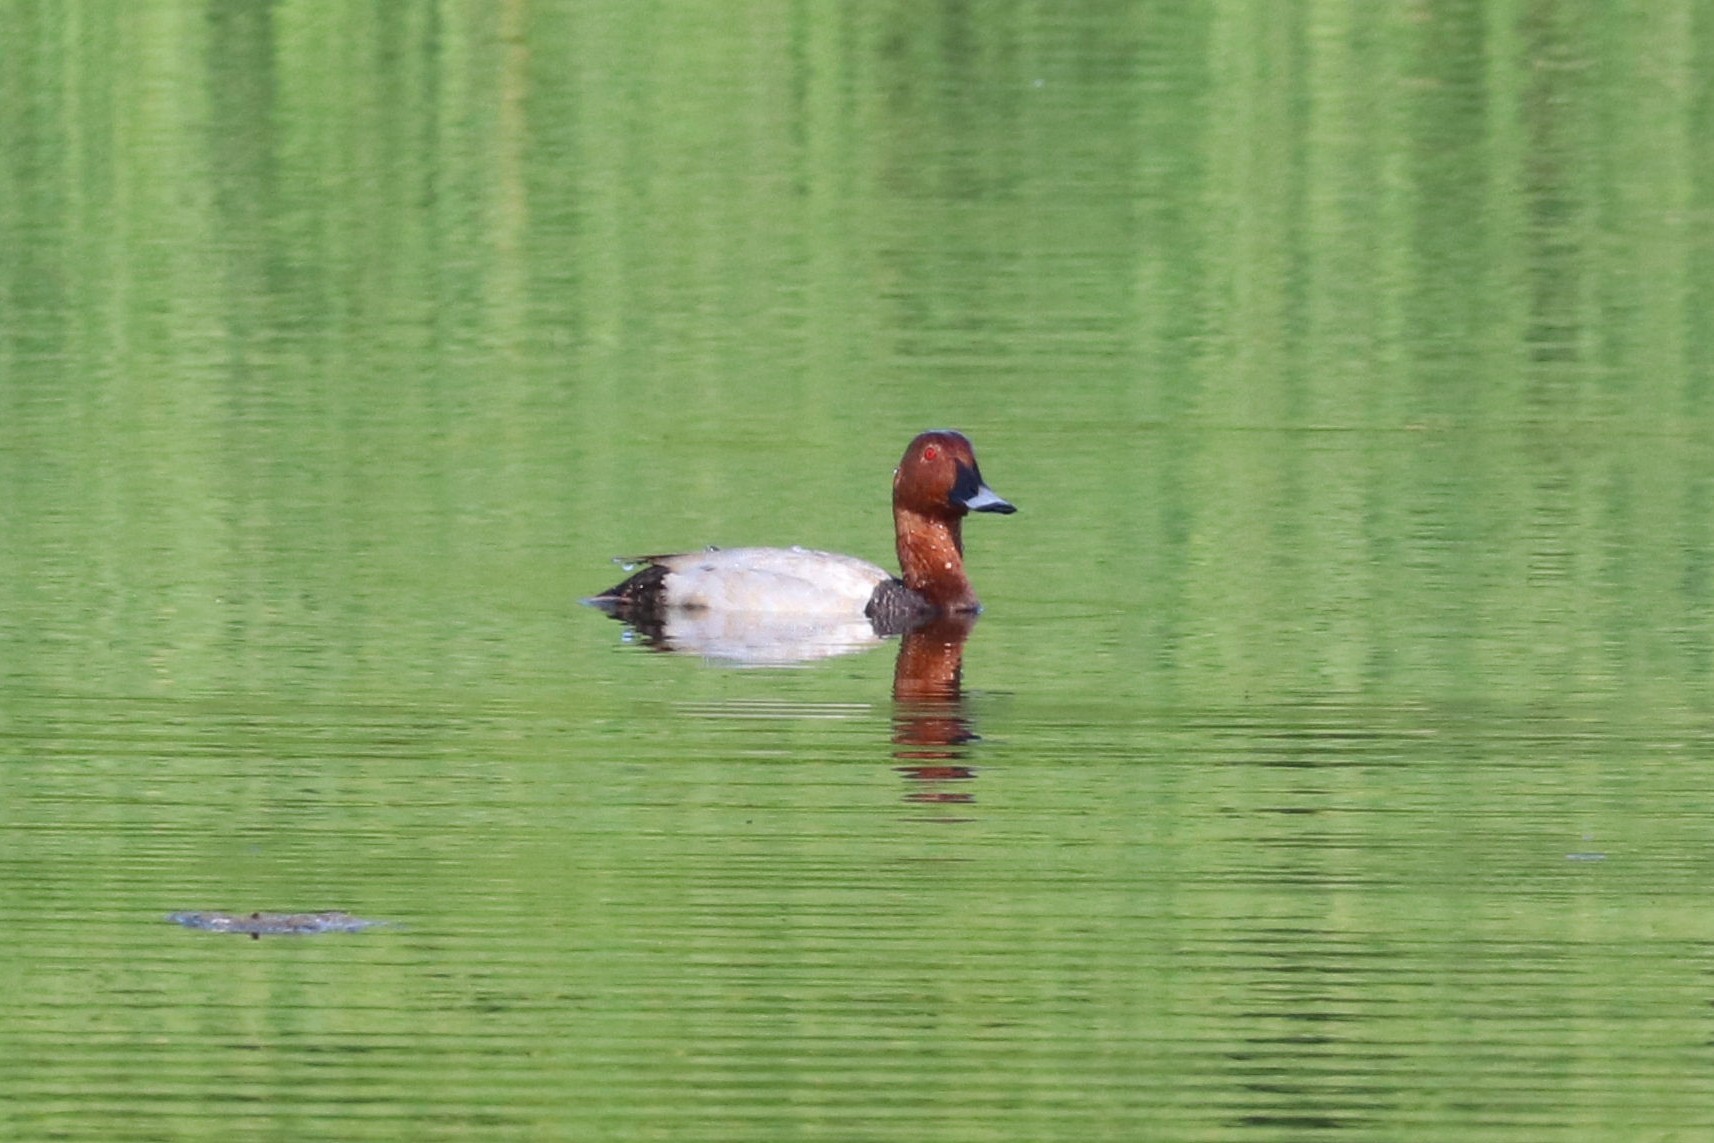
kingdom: Animalia
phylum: Chordata
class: Aves
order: Anseriformes
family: Anatidae
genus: Aythya
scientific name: Aythya ferina
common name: Common pochard
